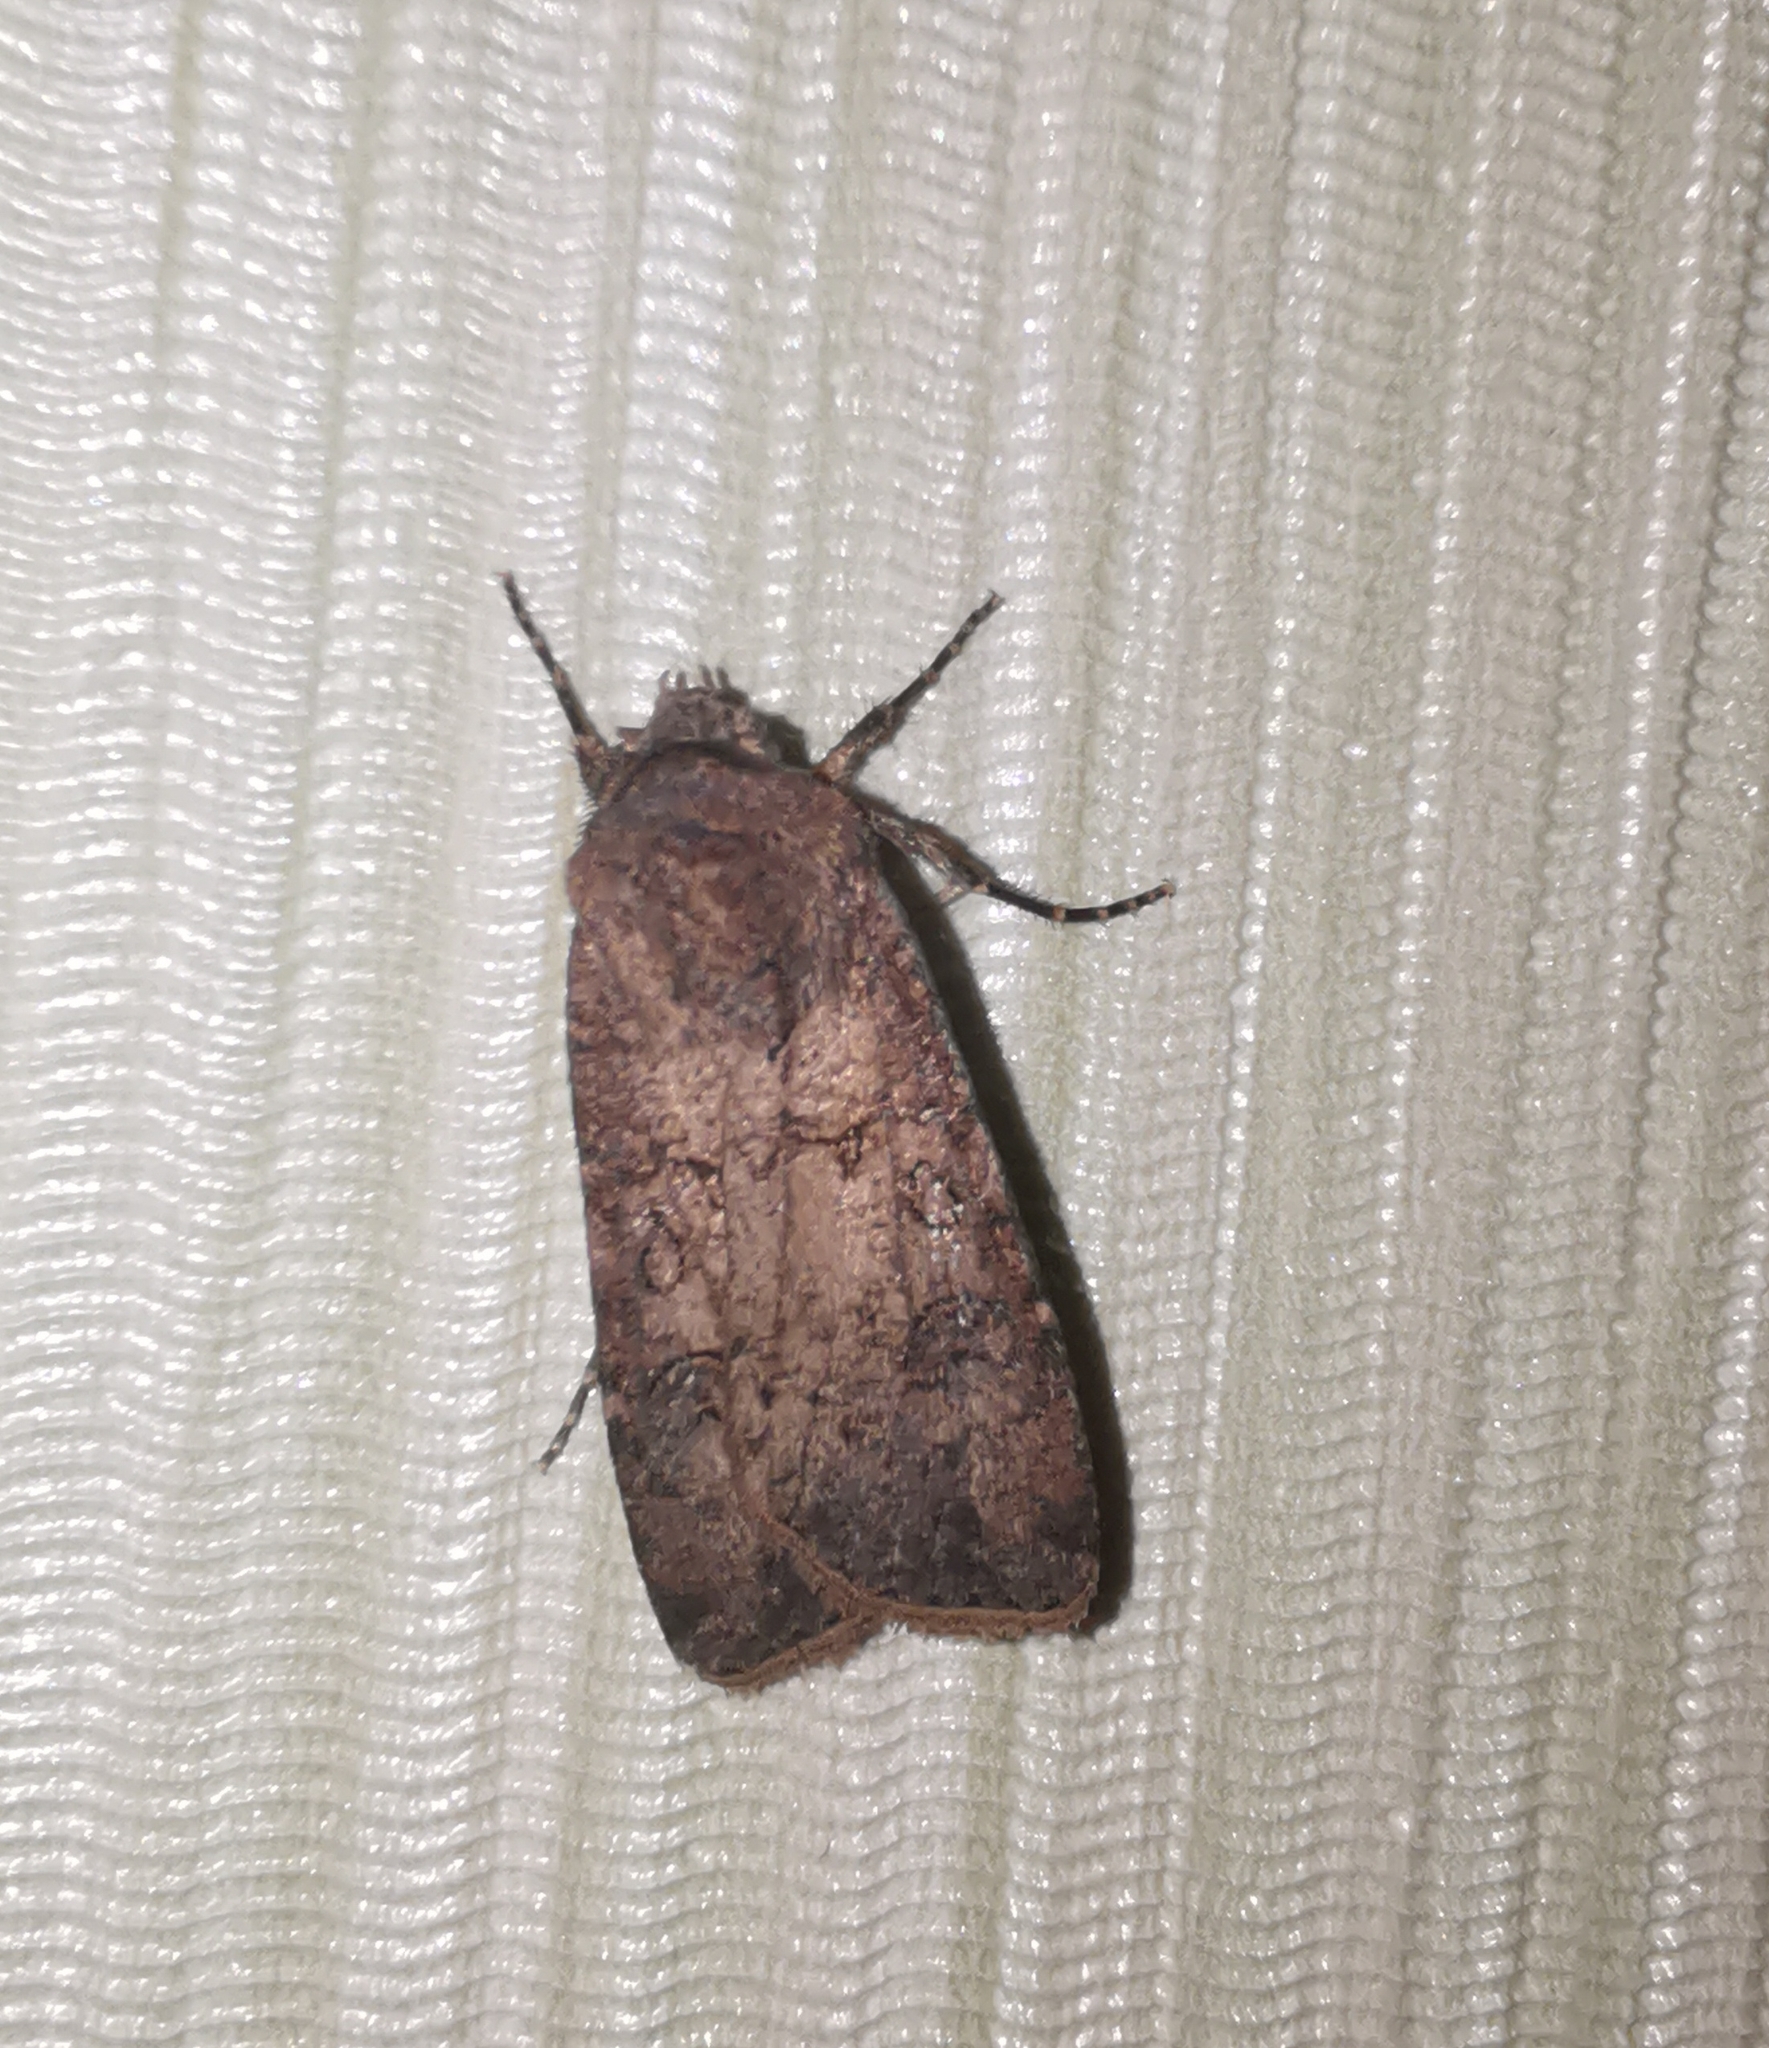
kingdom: Animalia
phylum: Arthropoda
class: Insecta
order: Lepidoptera
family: Noctuidae
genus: Agrotis
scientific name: Agrotis segetum
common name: Turnip moth
